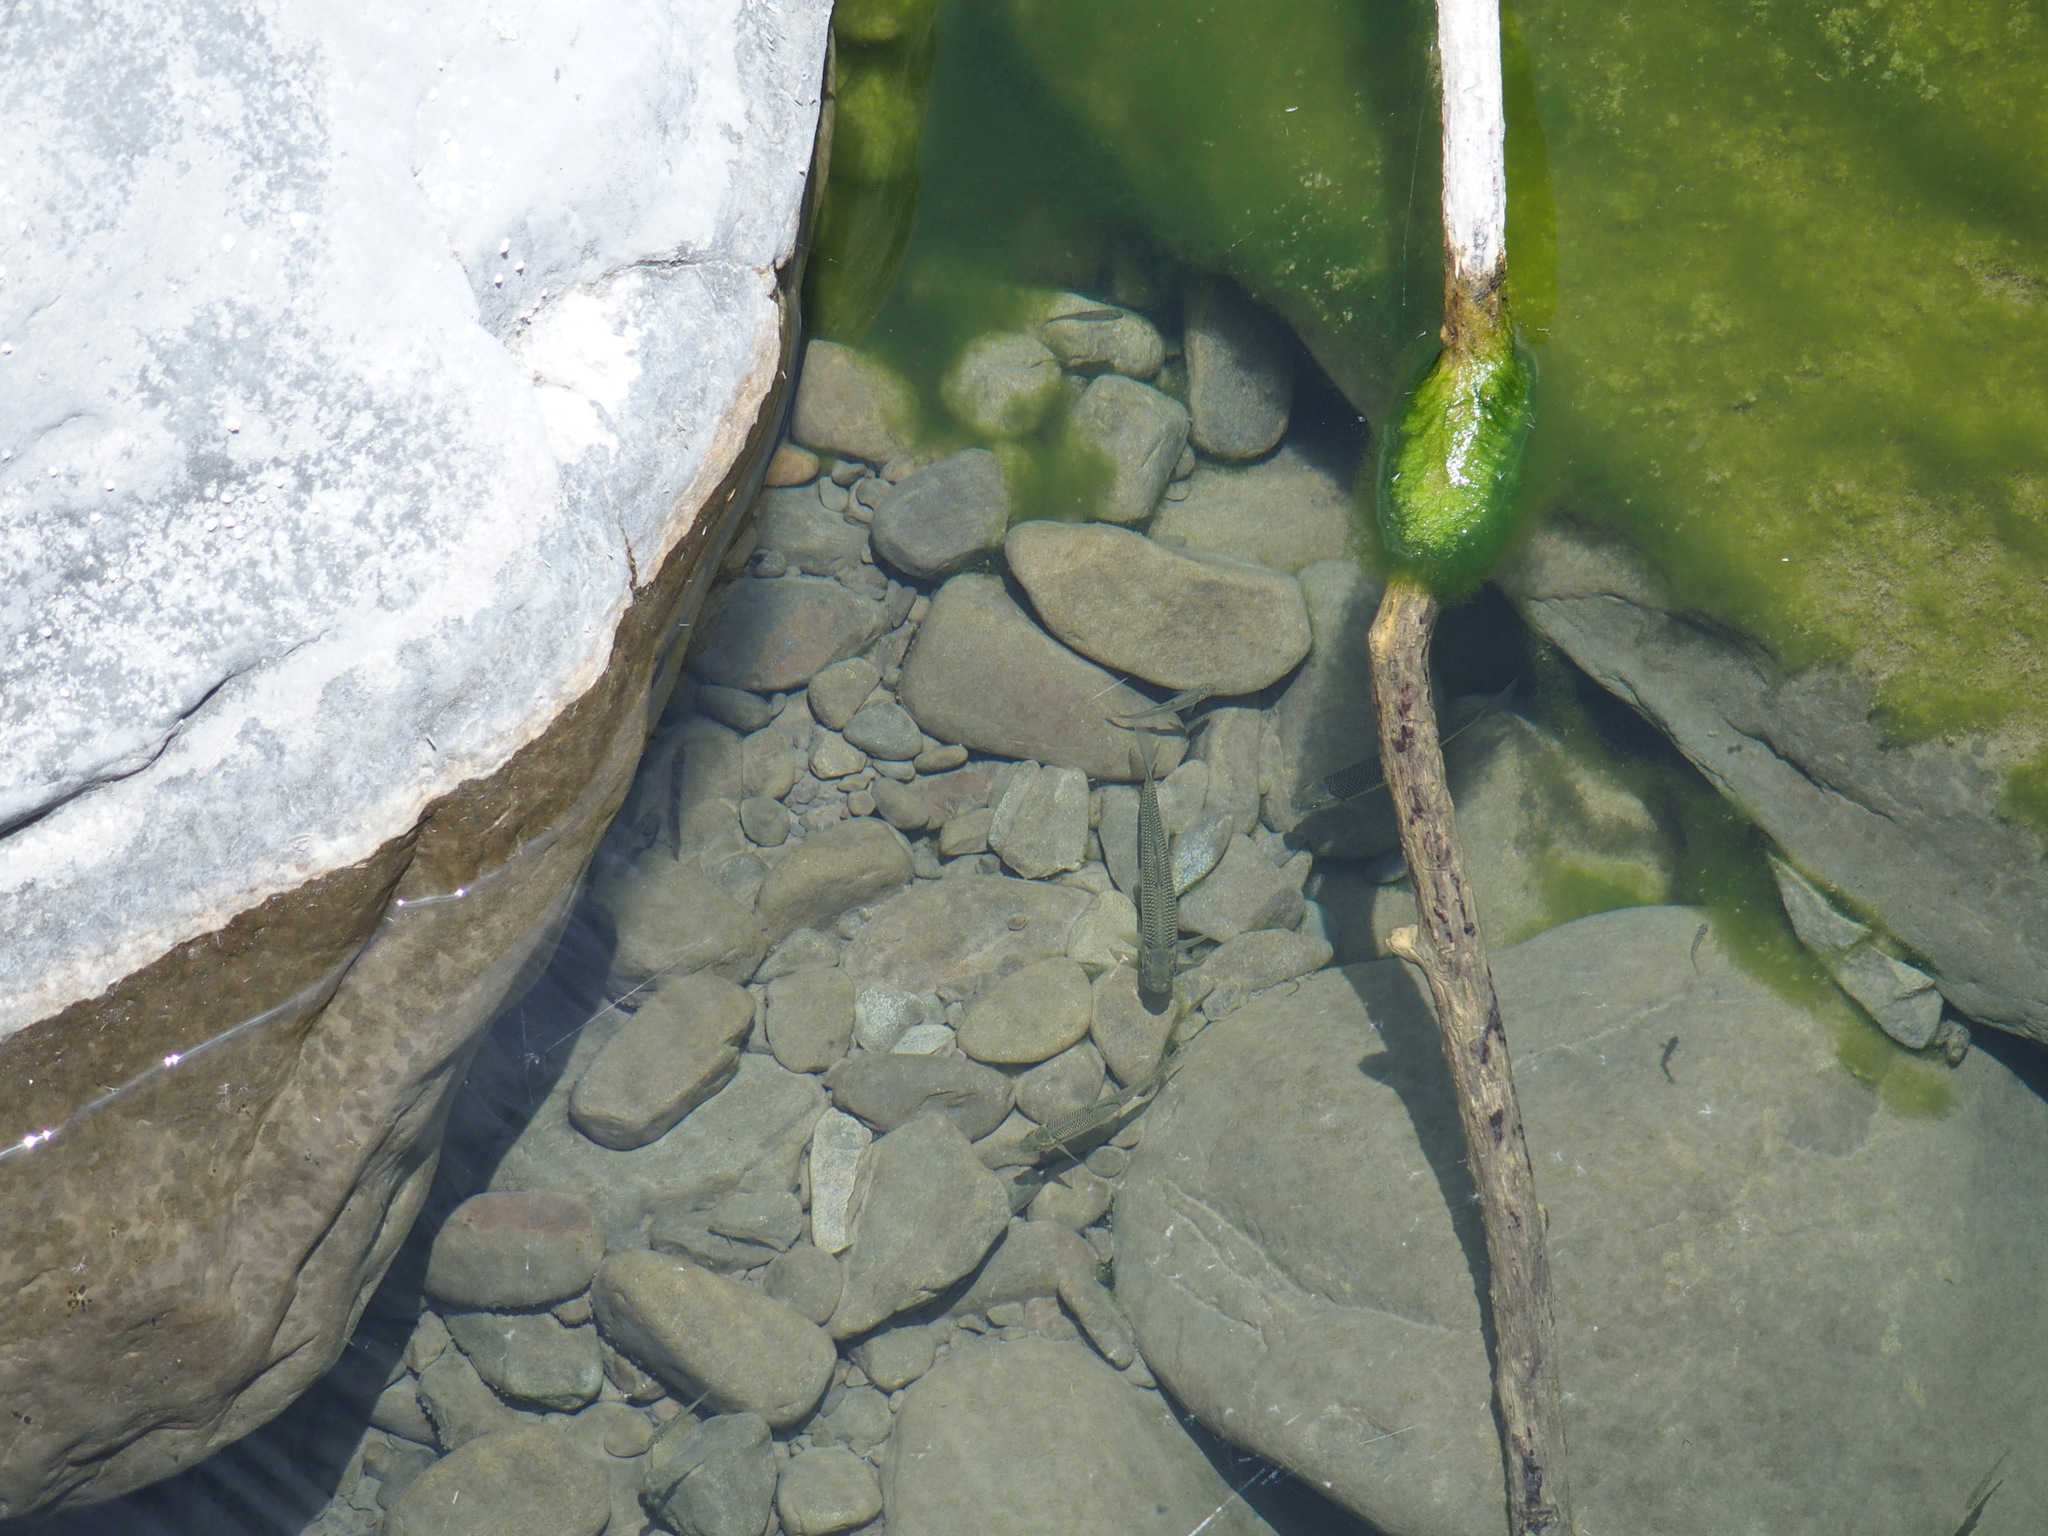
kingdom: Animalia
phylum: Chordata
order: Cypriniformes
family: Cyprinidae
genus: Onychostoma
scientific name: Onychostoma barbatulum
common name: Taiwan shoveljaw carp
